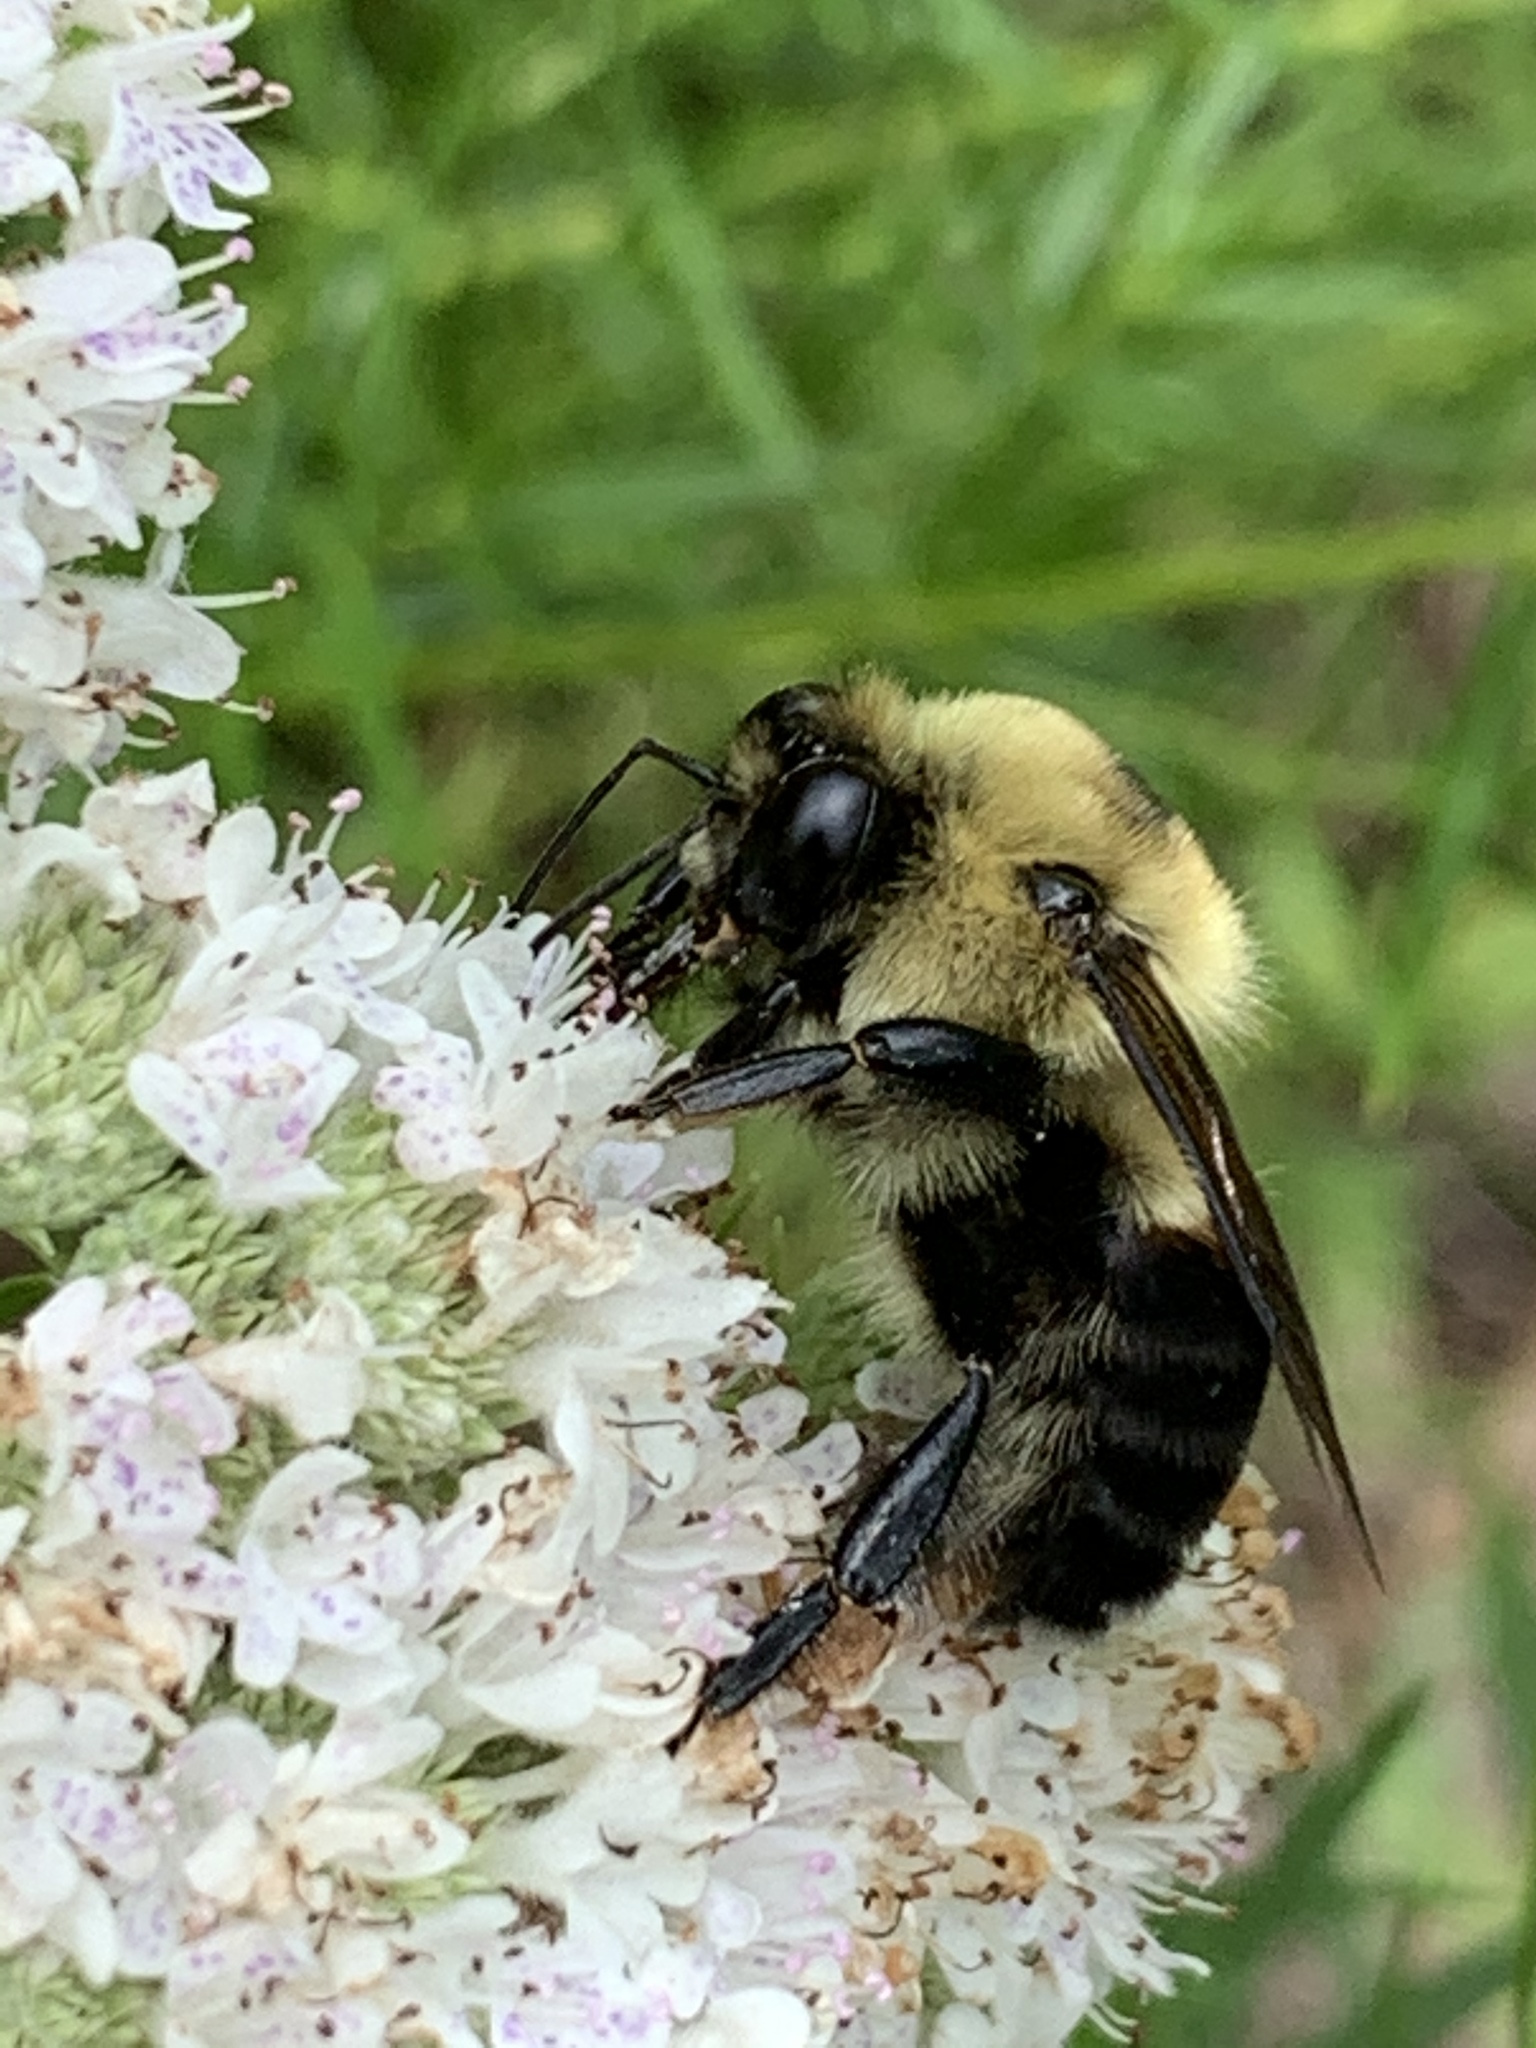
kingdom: Animalia
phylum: Arthropoda
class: Insecta
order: Hymenoptera
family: Apidae
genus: Bombus
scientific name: Bombus griseocollis
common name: Brown-belted bumble bee
